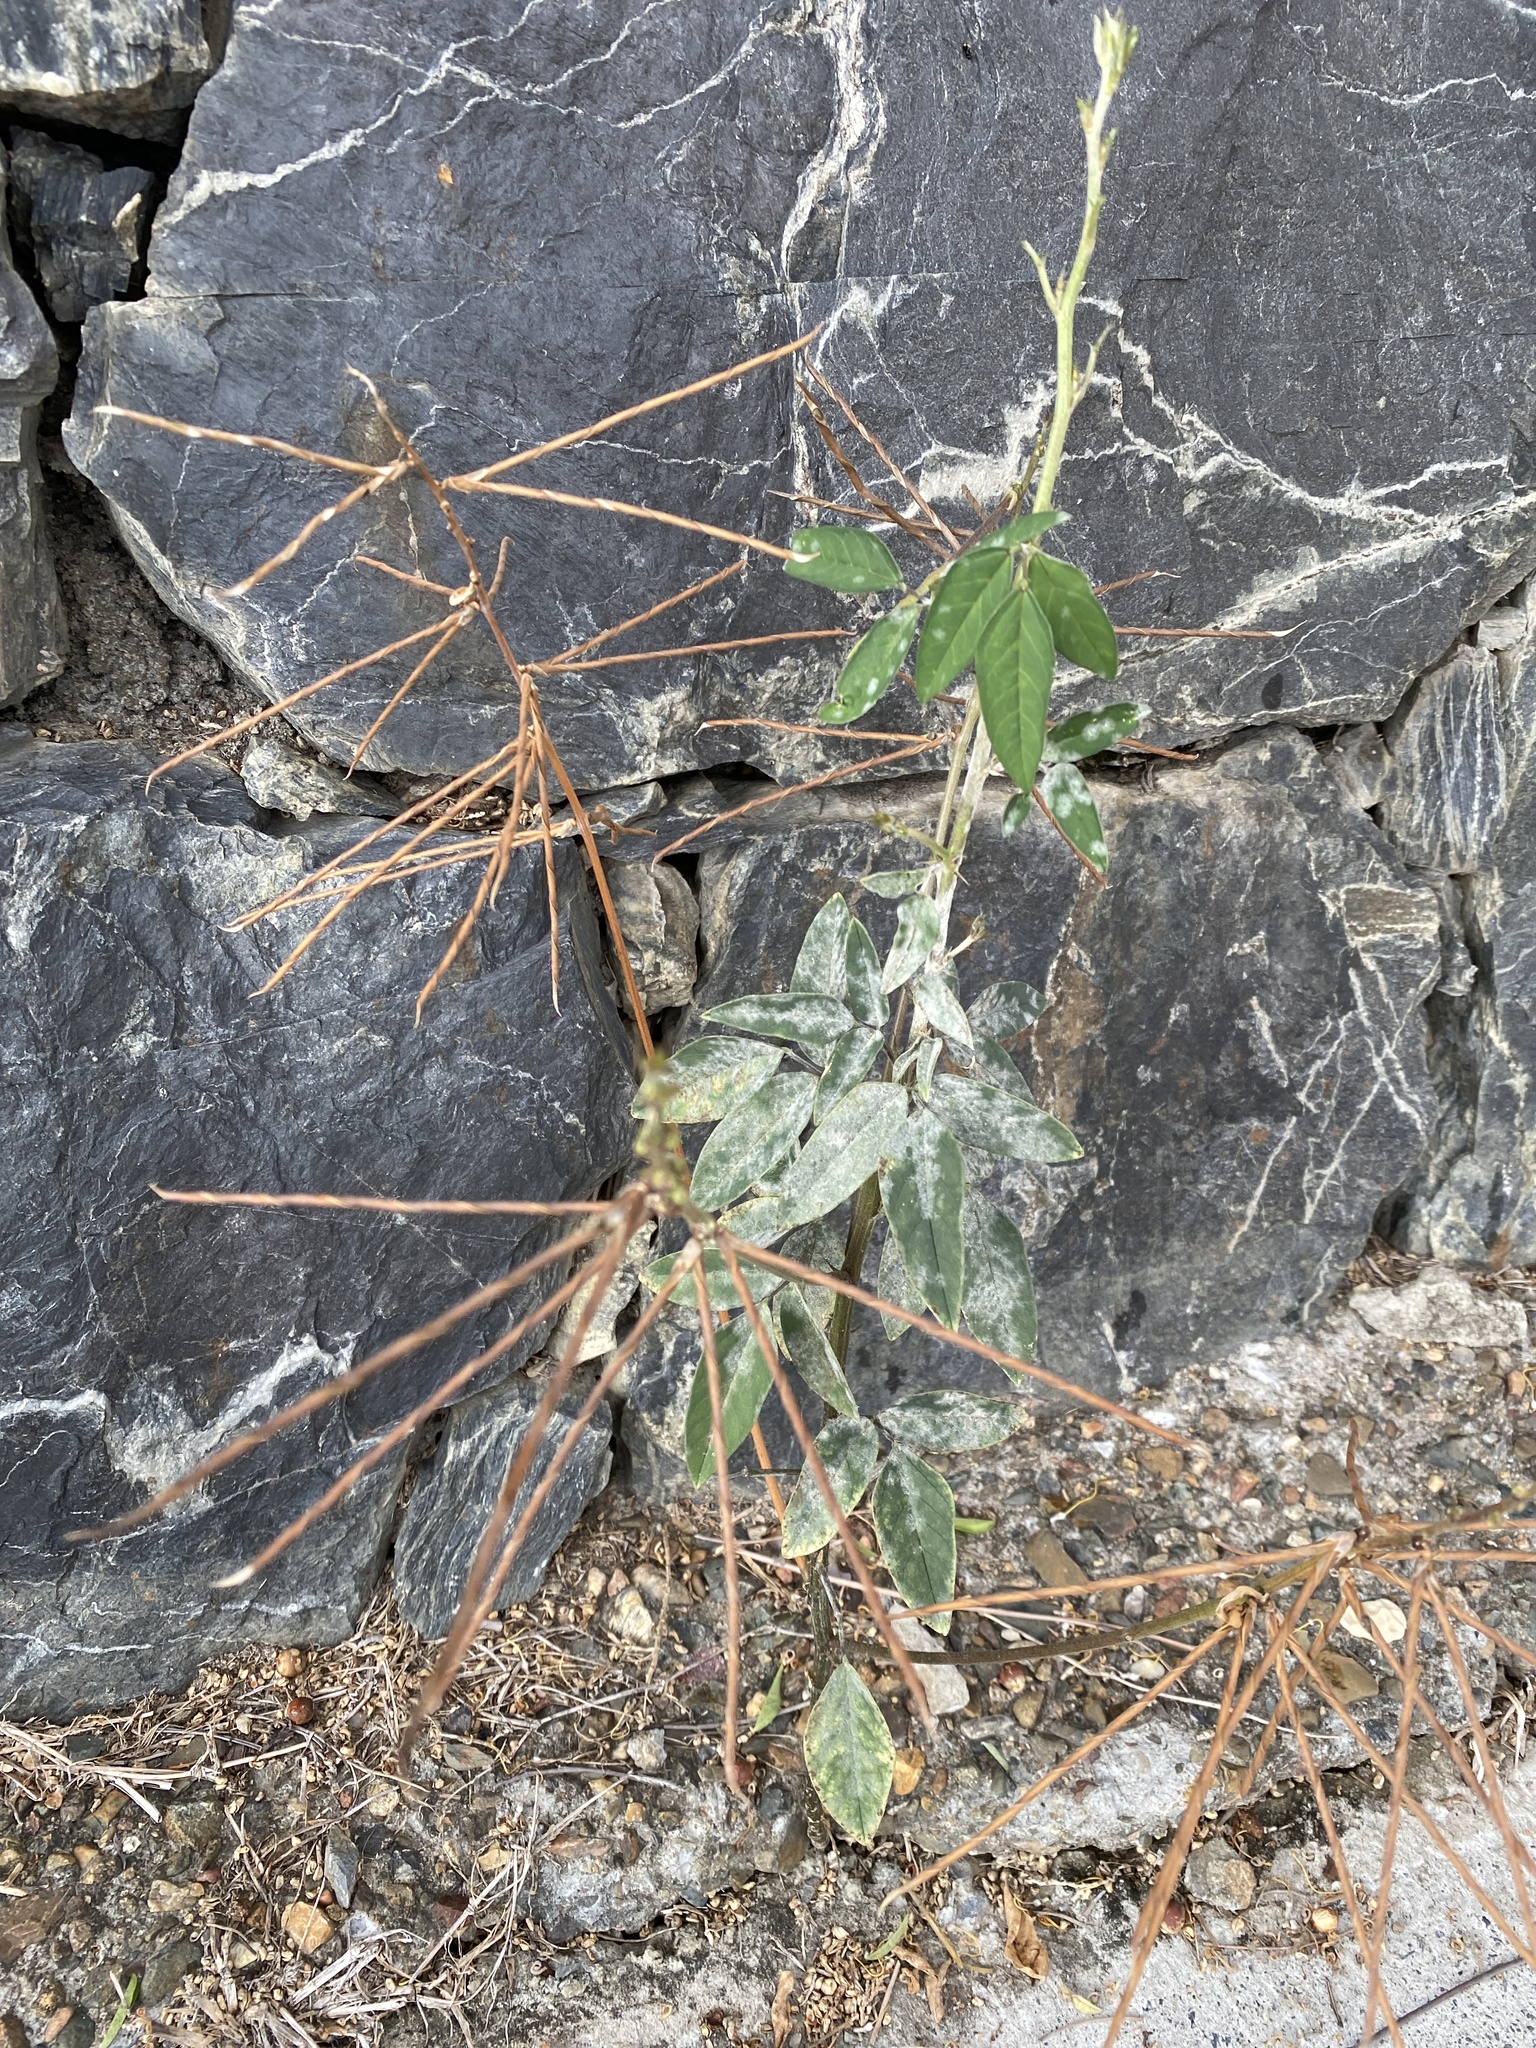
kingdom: Plantae
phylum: Tracheophyta
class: Magnoliopsida
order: Fabales
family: Fabaceae
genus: Macroptilium
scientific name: Macroptilium lathyroides
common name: Wild bushbean
